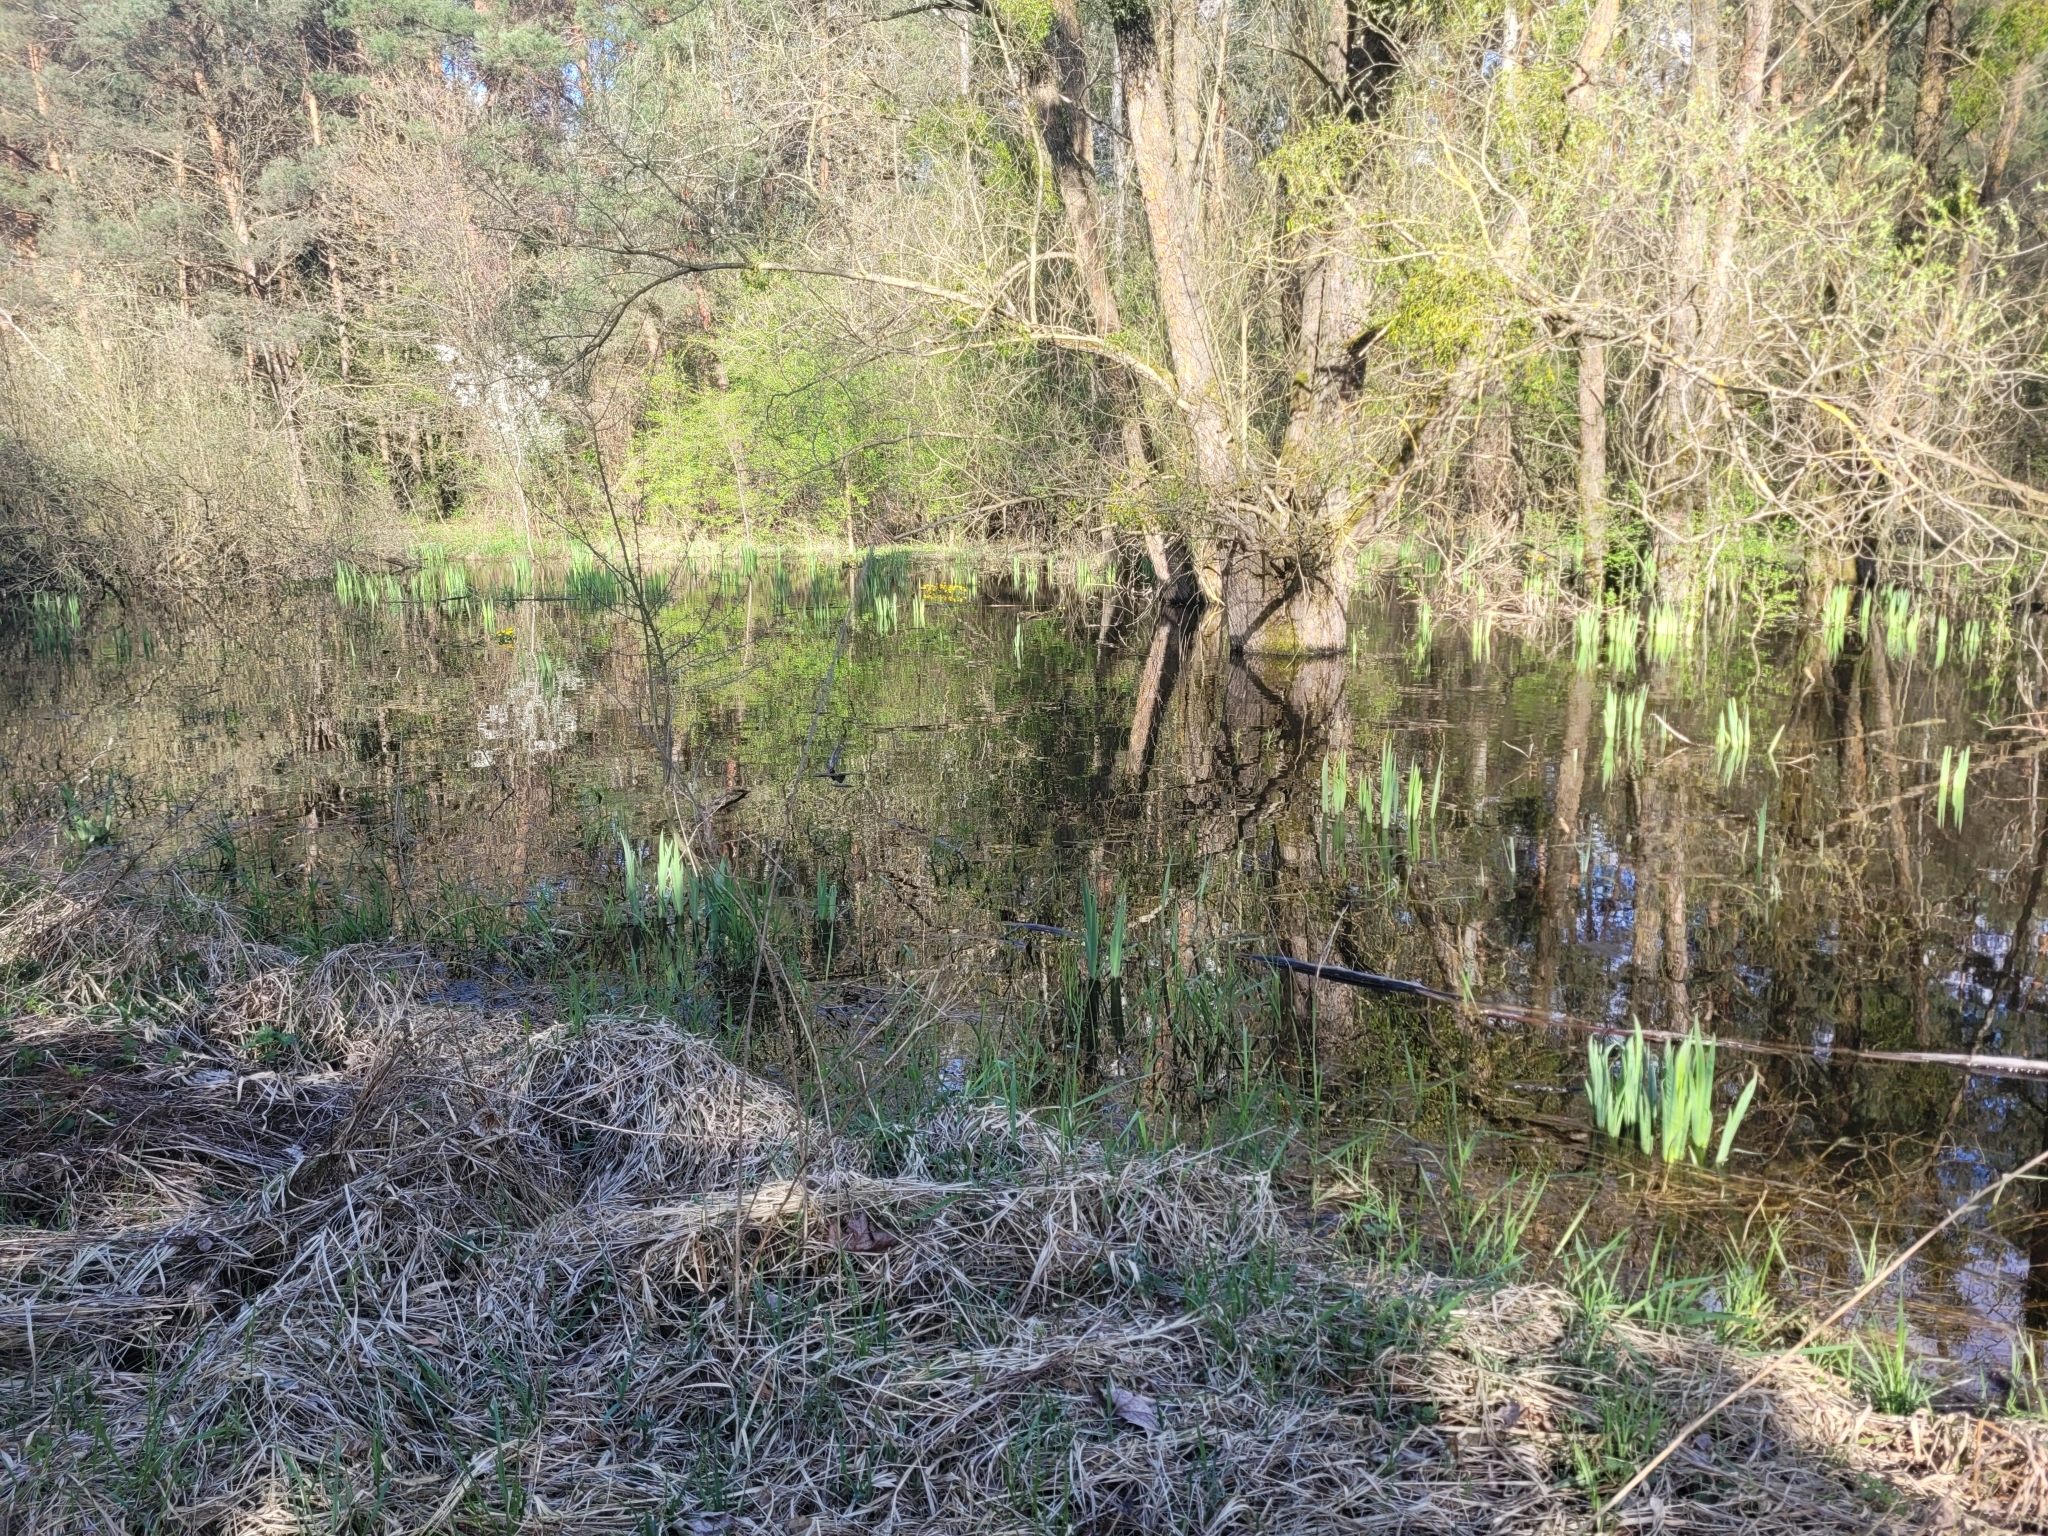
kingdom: Plantae
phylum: Tracheophyta
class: Magnoliopsida
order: Ranunculales
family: Ranunculaceae
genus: Caltha
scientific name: Caltha palustris
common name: Marsh marigold
